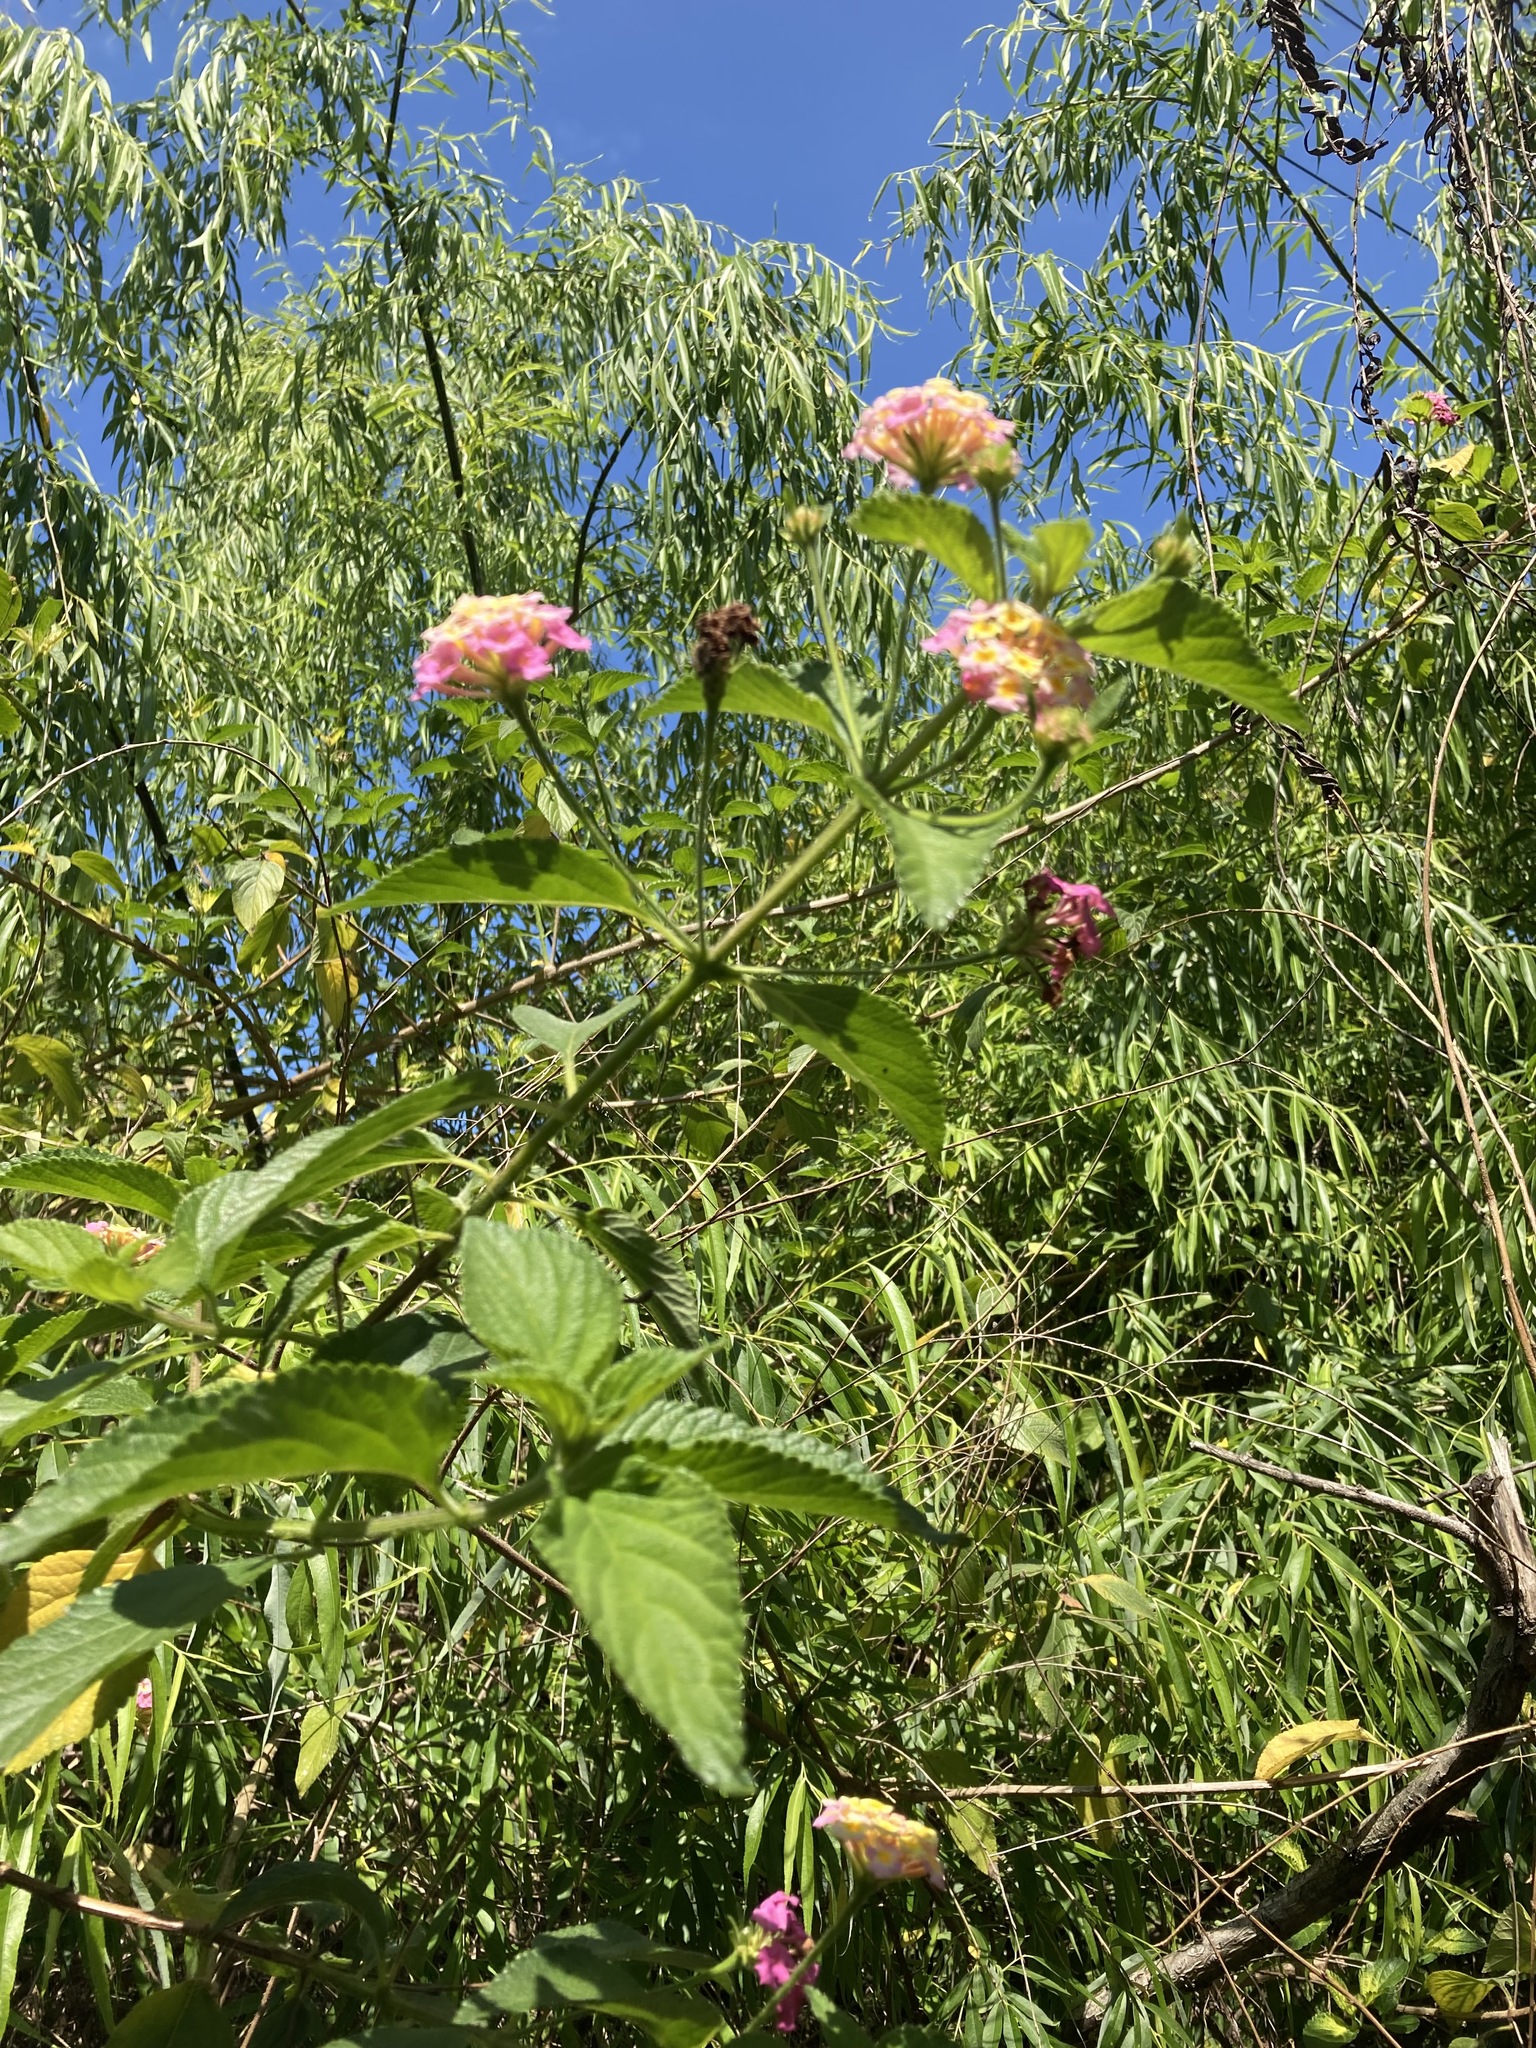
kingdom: Plantae
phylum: Tracheophyta
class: Magnoliopsida
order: Lamiales
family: Verbenaceae
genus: Lantana
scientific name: Lantana camara
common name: Lantana
